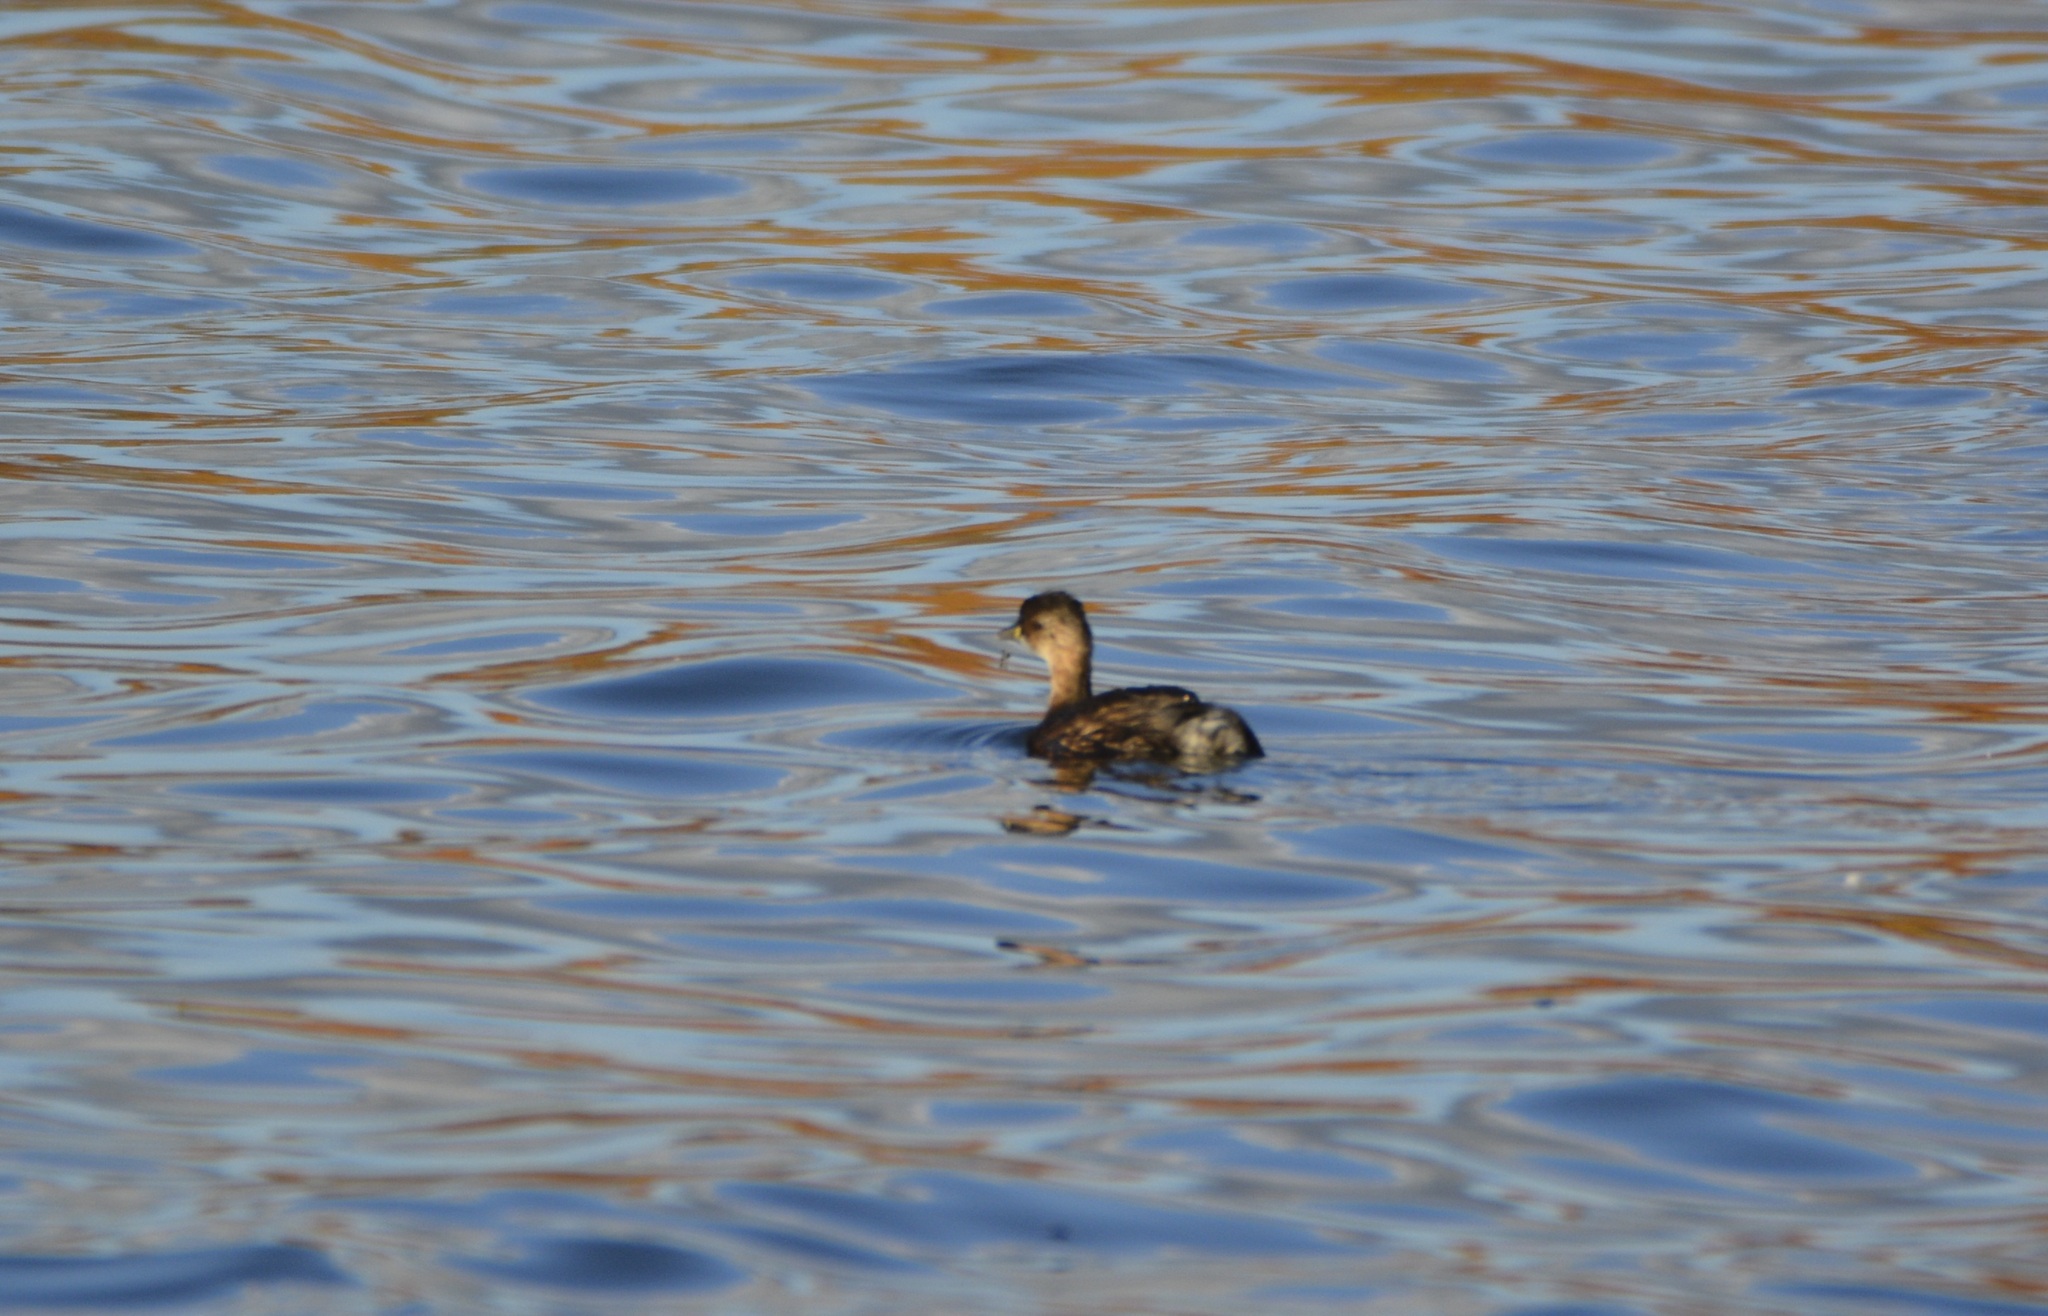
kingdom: Animalia
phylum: Chordata
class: Aves
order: Podicipediformes
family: Podicipedidae
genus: Tachybaptus
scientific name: Tachybaptus ruficollis
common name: Little grebe
